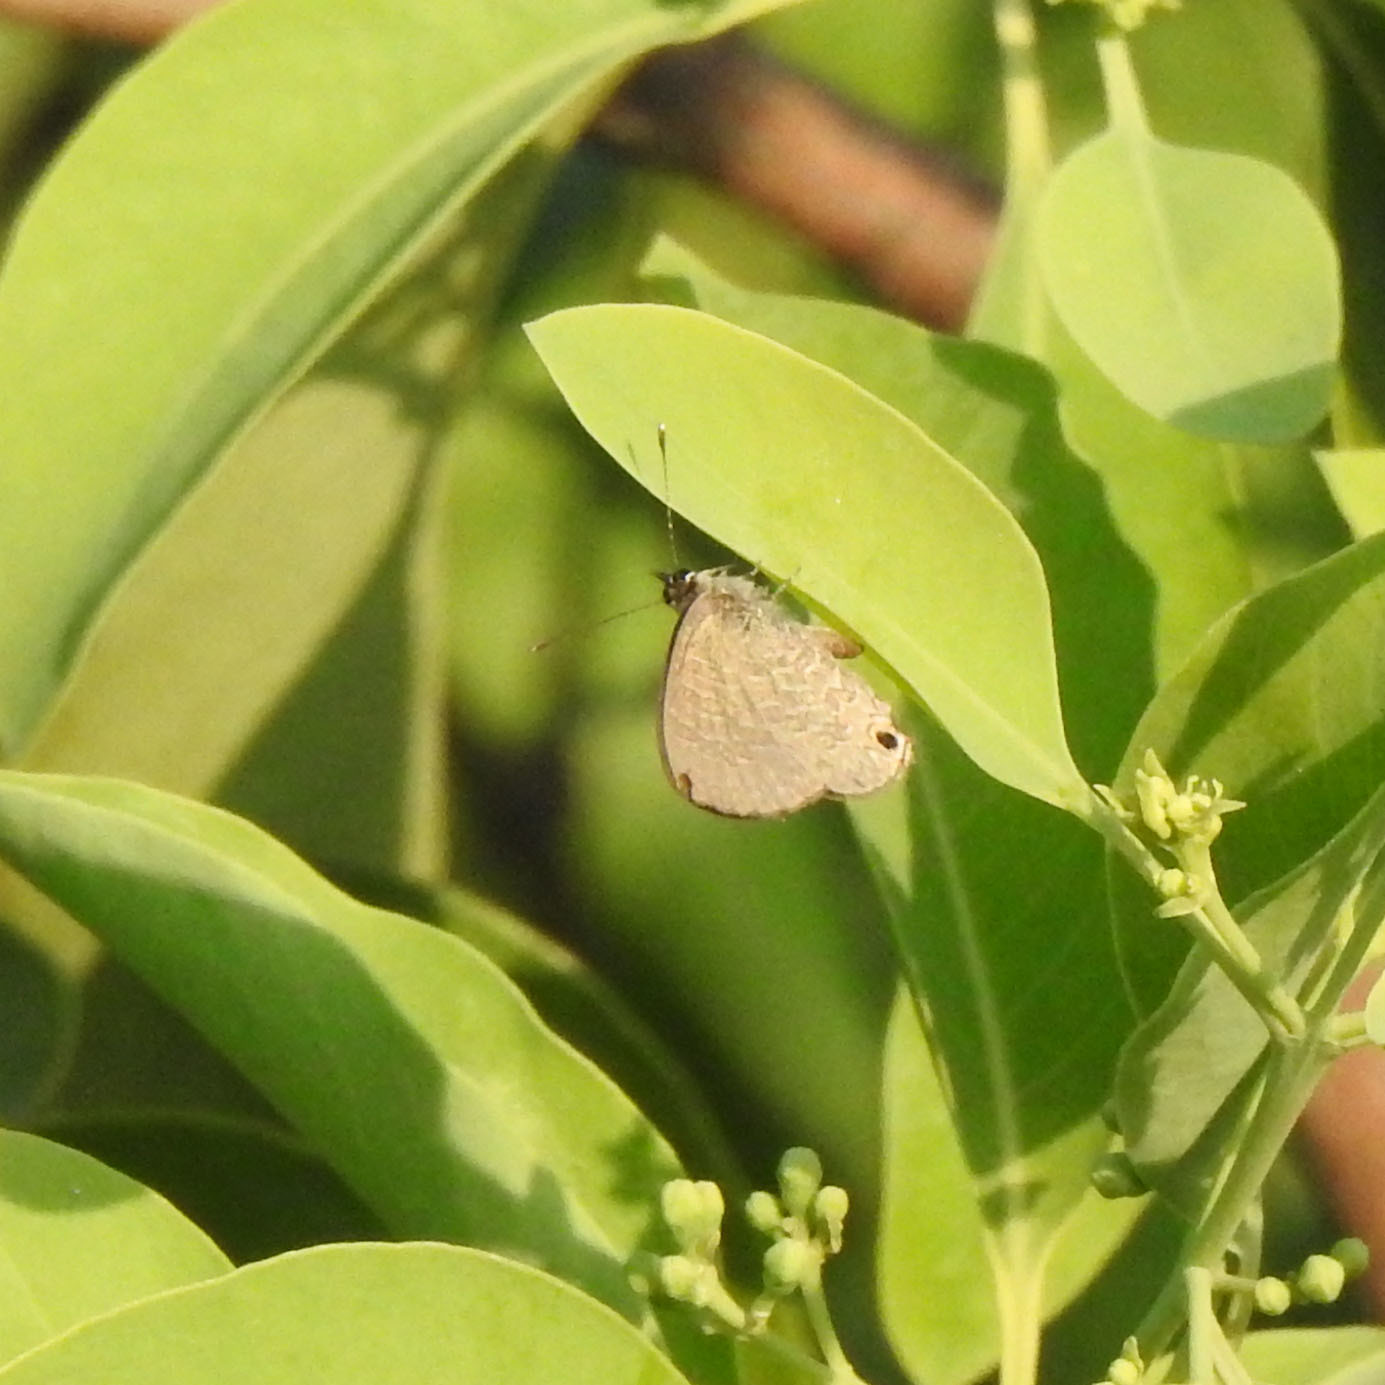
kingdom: Animalia
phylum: Arthropoda
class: Insecta
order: Lepidoptera
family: Lycaenidae
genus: Prosotas
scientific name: Prosotas dubiosa
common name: Tailless lineblue
